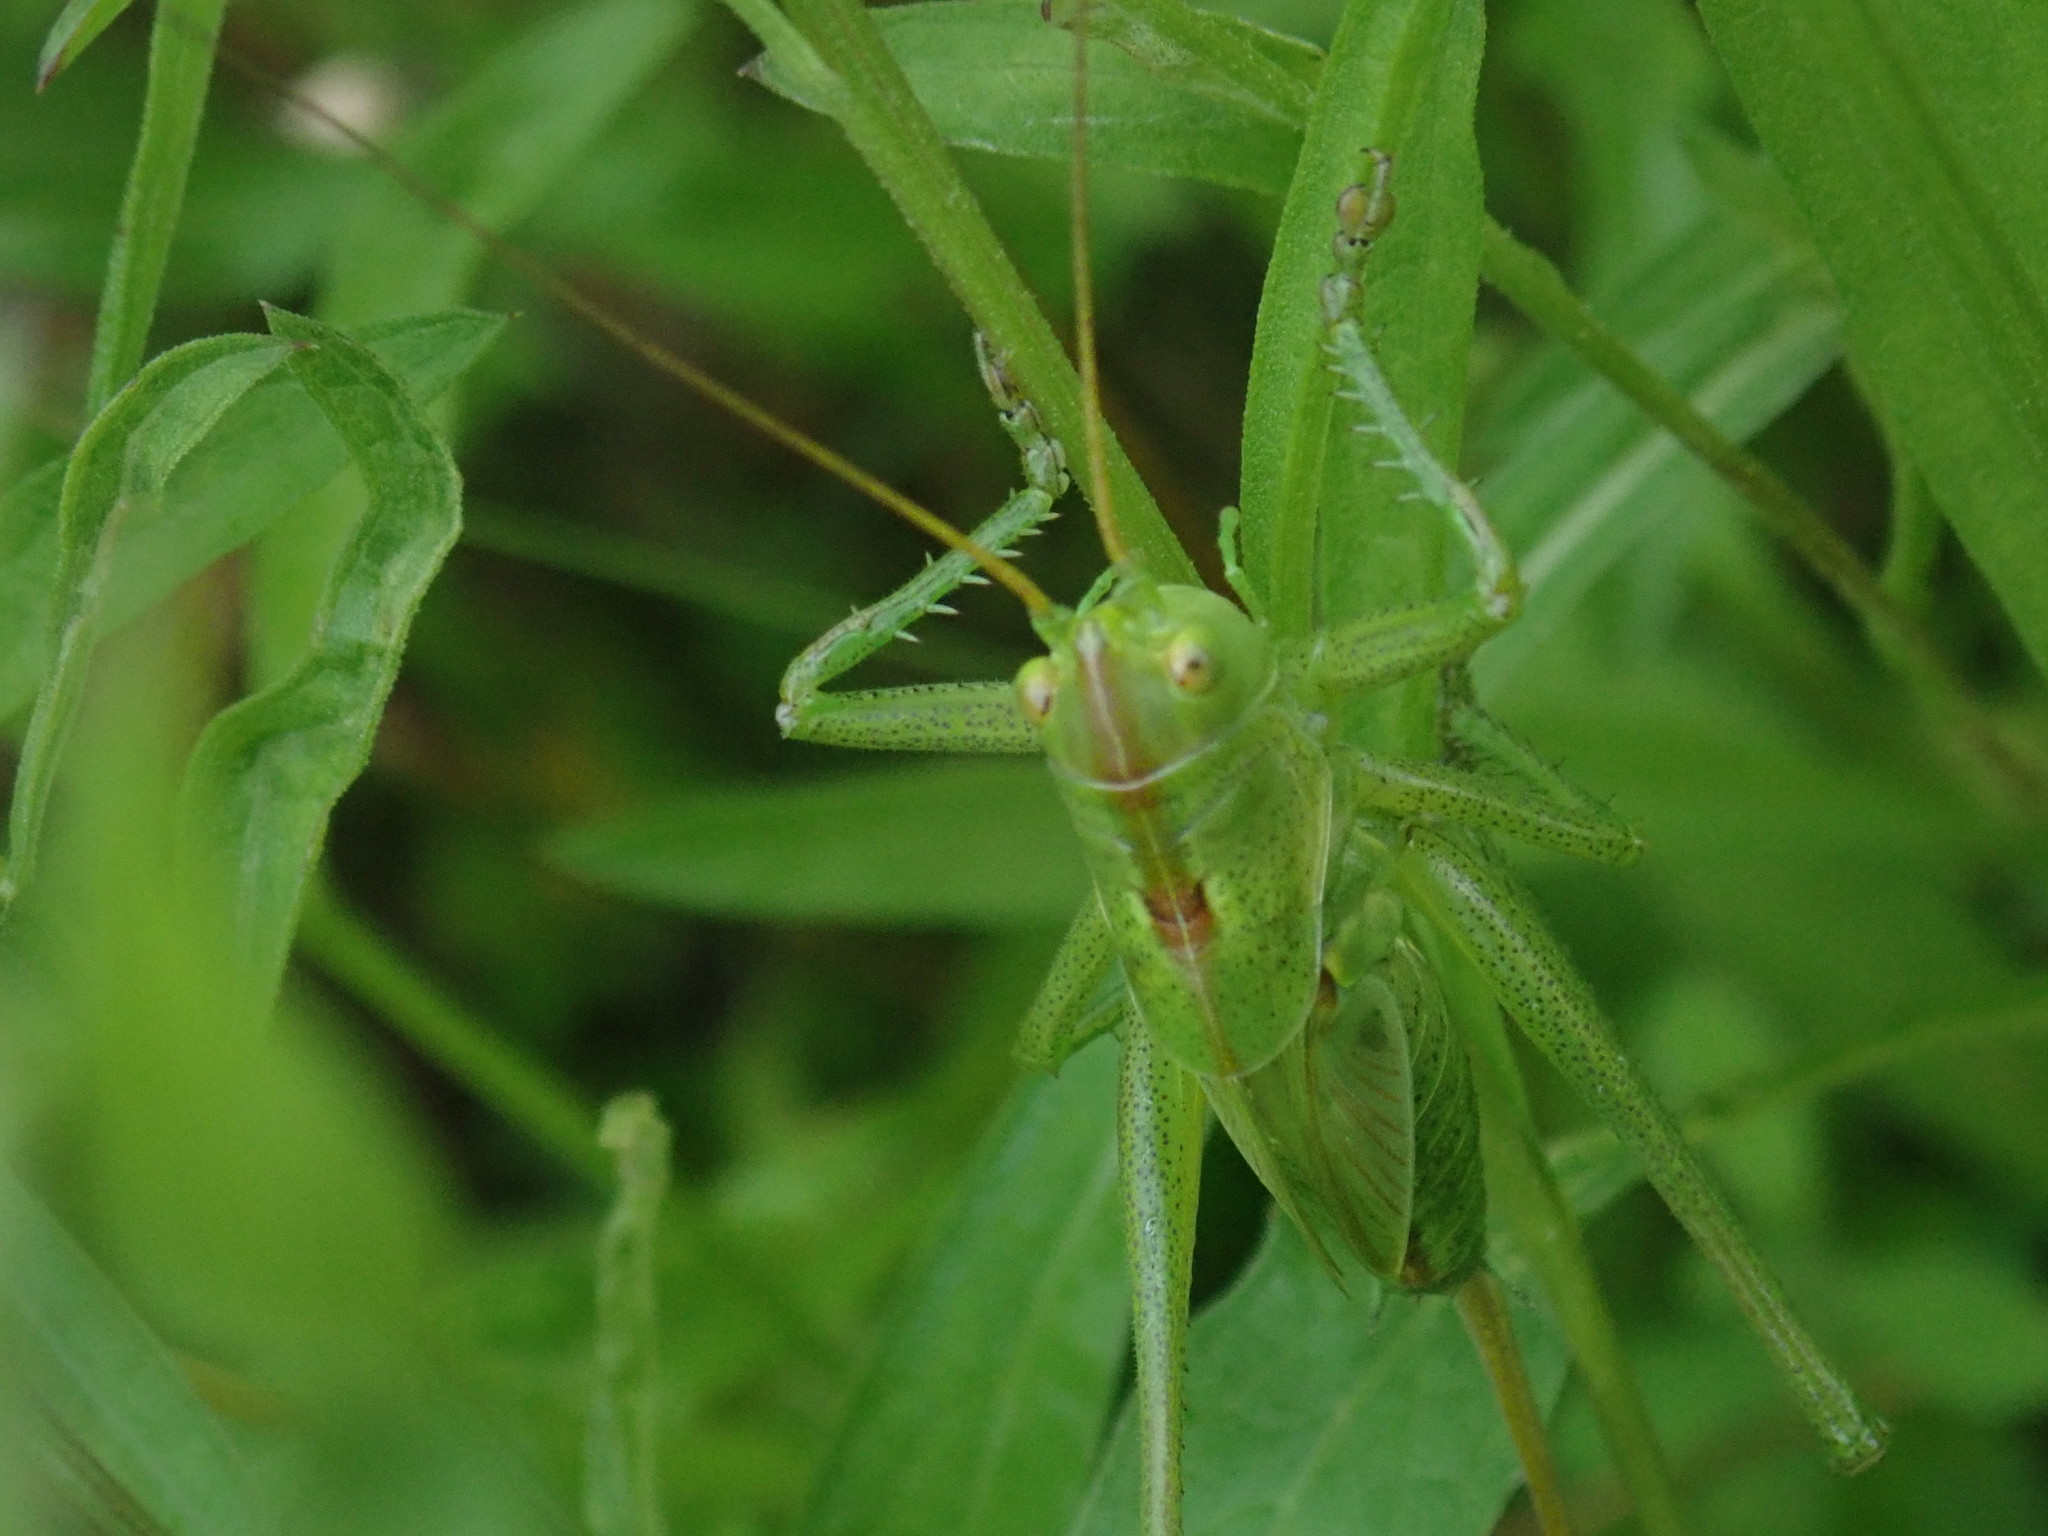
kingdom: Animalia
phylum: Arthropoda
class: Insecta
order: Orthoptera
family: Tettigoniidae
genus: Tettigonia
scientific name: Tettigonia viridissima
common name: Great green bush-cricket
